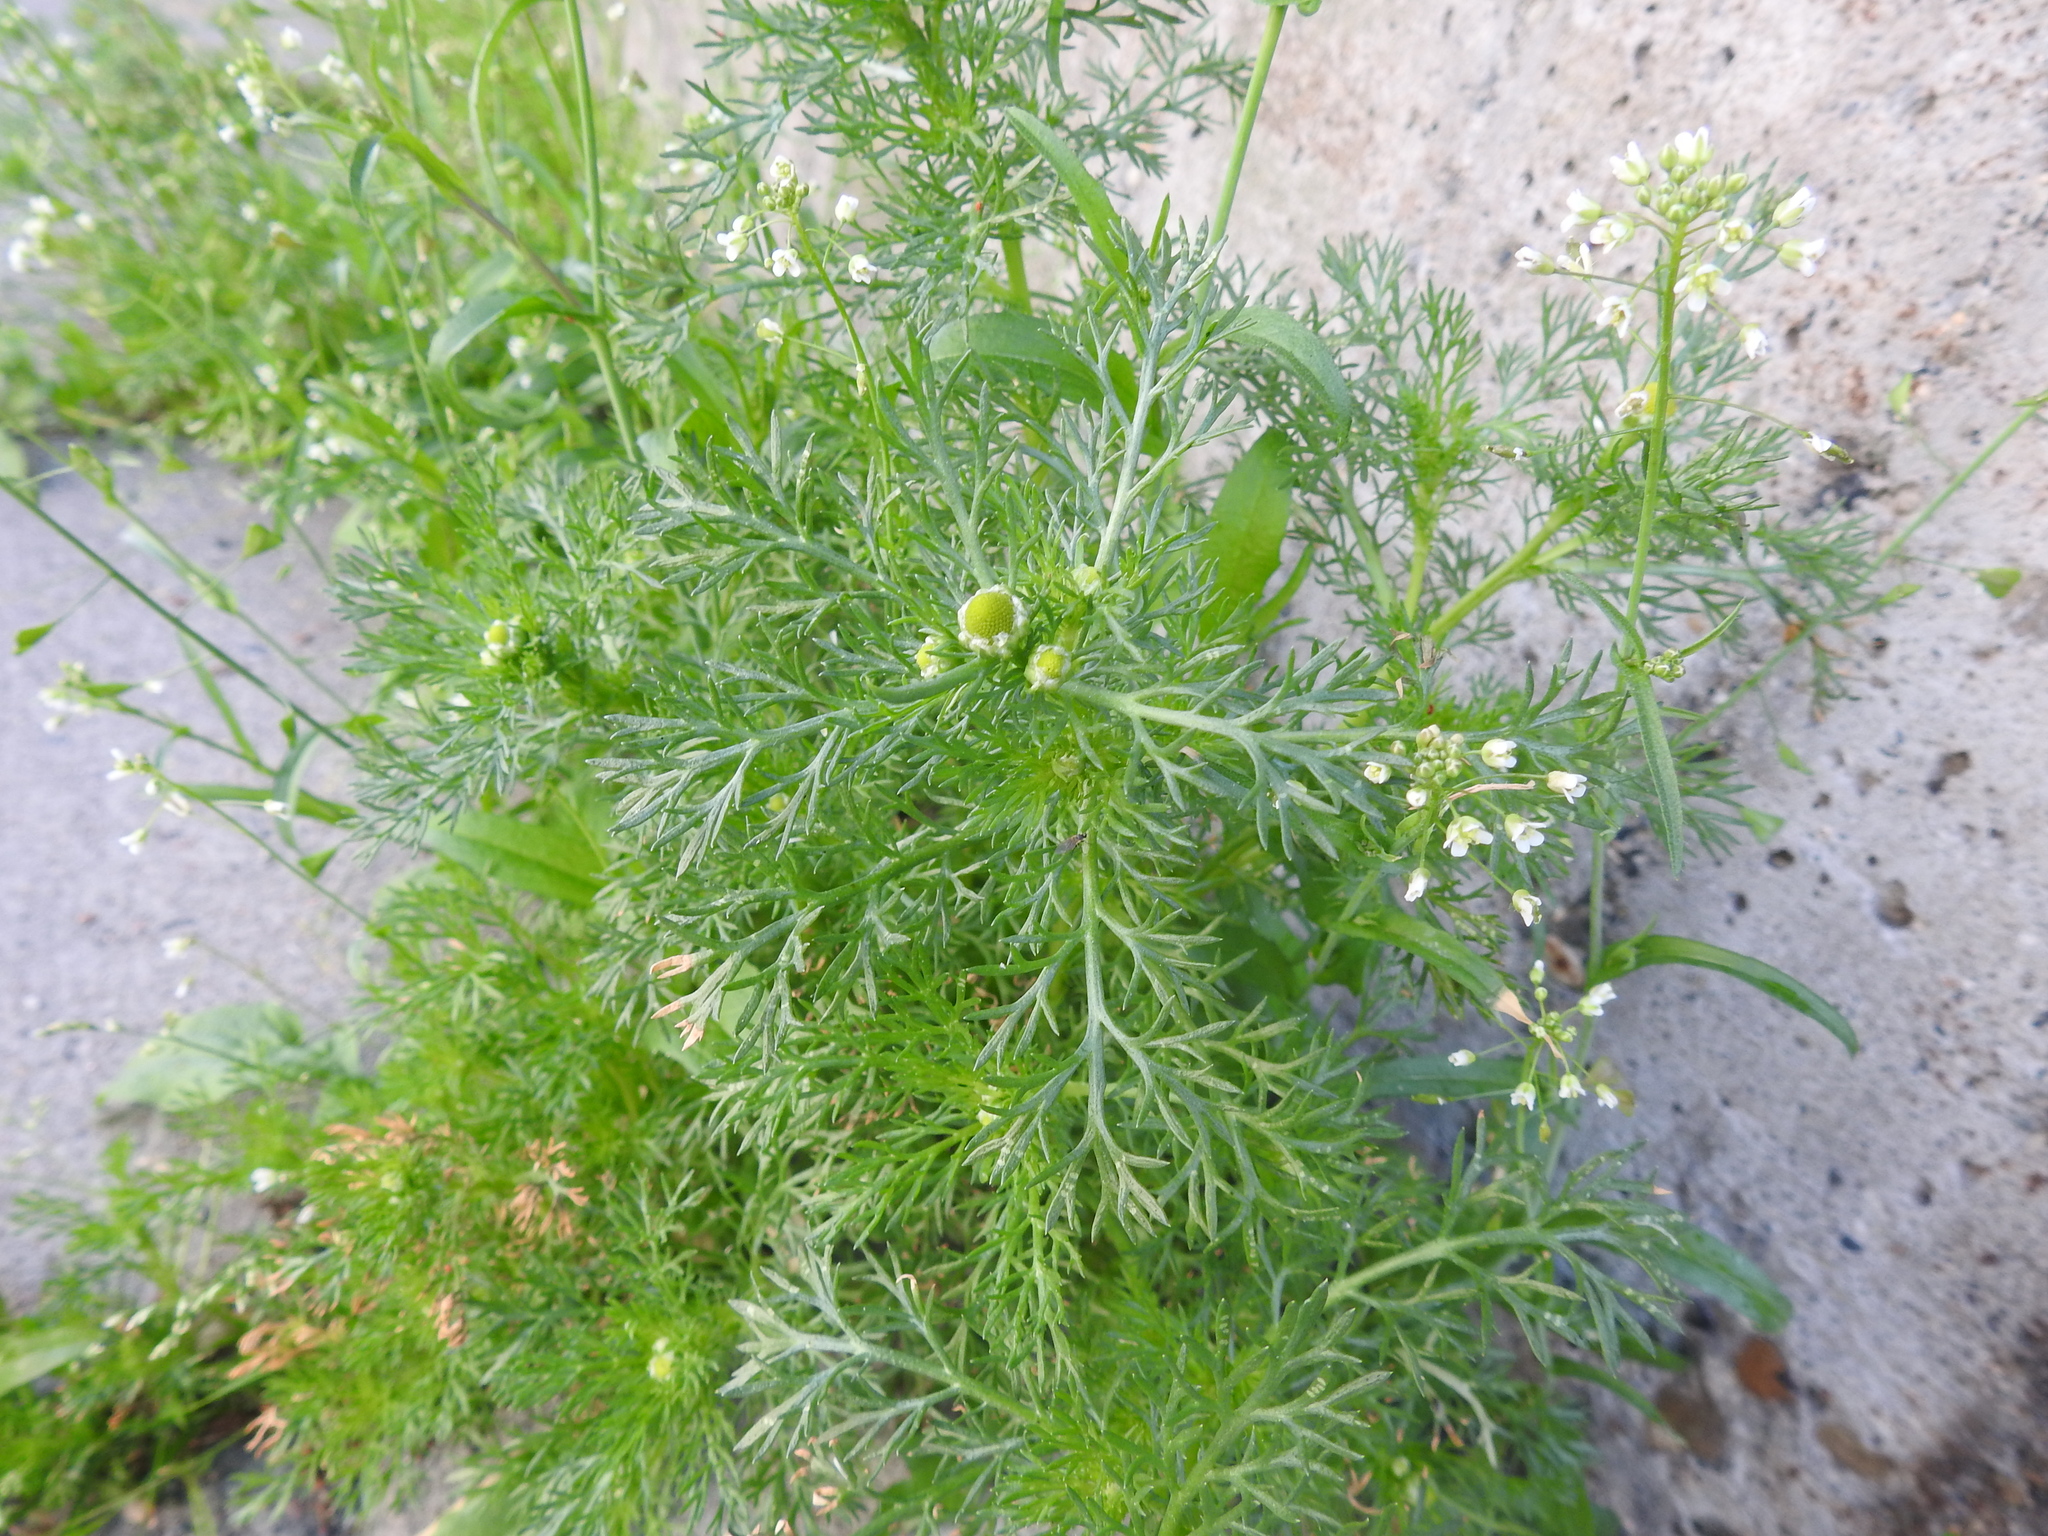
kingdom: Plantae
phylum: Tracheophyta
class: Magnoliopsida
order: Asterales
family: Asteraceae
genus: Matricaria
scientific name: Matricaria discoidea
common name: Disc mayweed
